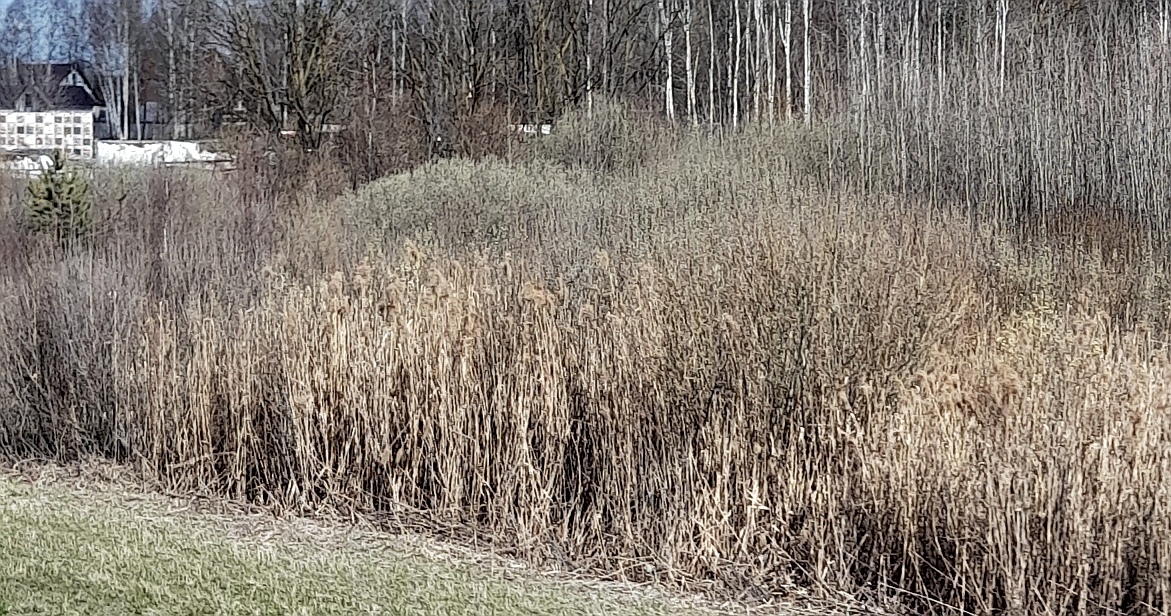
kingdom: Plantae
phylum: Tracheophyta
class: Liliopsida
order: Poales
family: Poaceae
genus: Phragmites
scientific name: Phragmites australis
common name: Common reed
